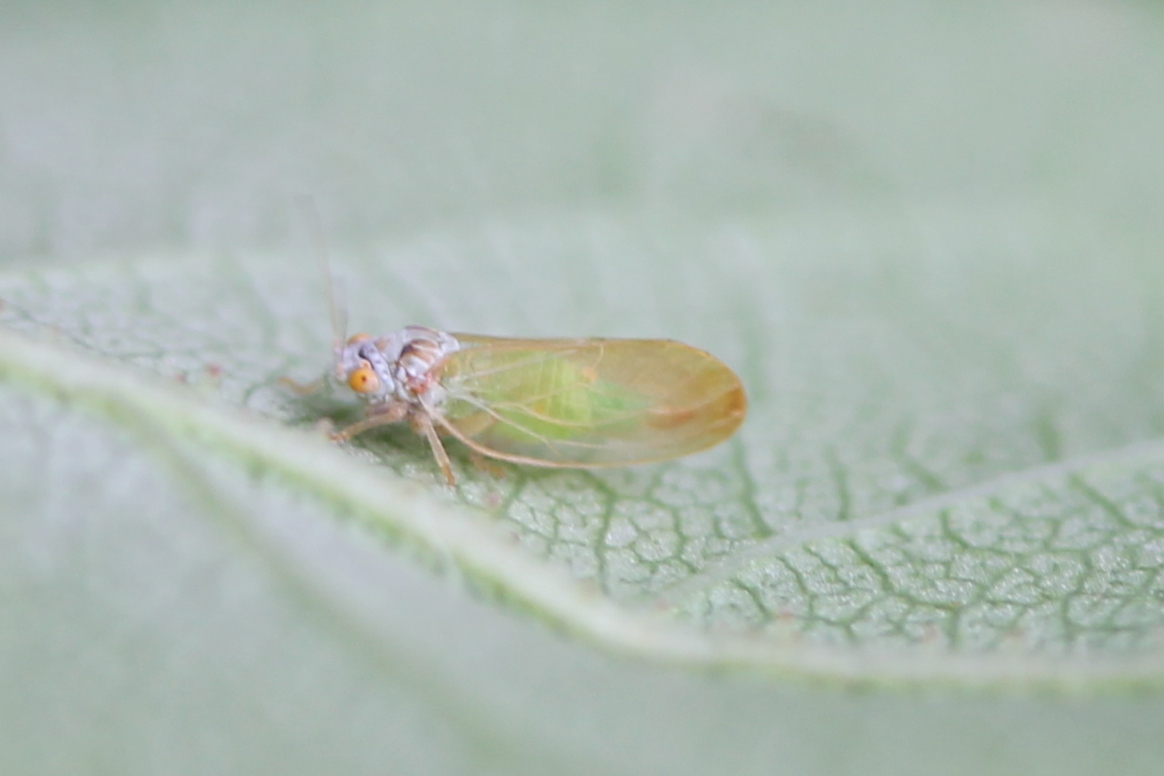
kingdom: Animalia
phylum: Arthropoda
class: Insecta
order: Hemiptera
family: Psyllidae
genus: Psylla
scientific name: Psylla buxi
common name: Boxwood psyllid
